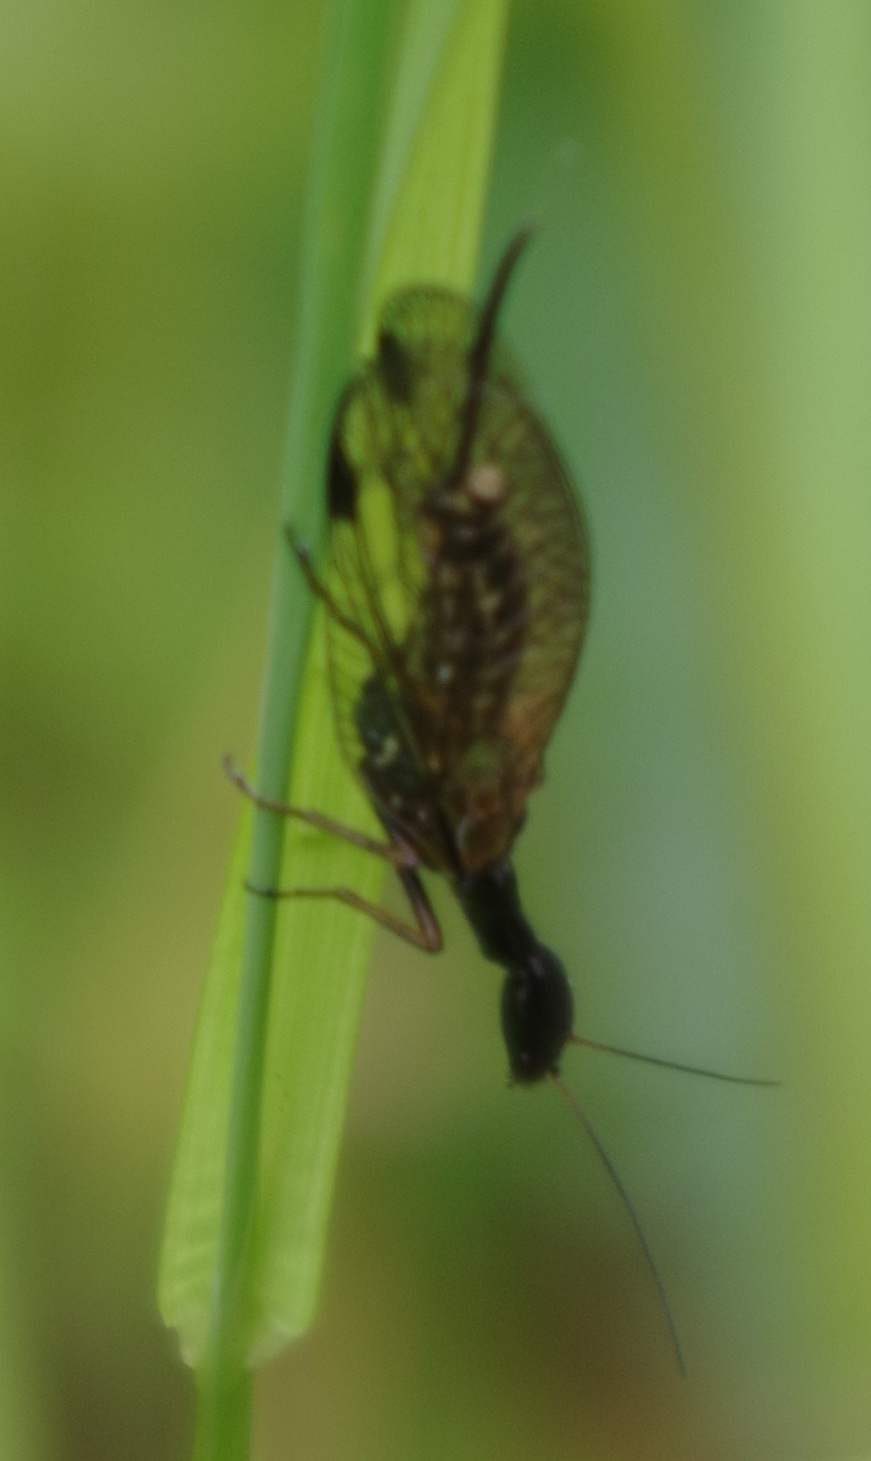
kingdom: Animalia
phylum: Arthropoda
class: Insecta
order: Raphidioptera
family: Raphidiidae
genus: Phaeostigma
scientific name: Phaeostigma notatum
